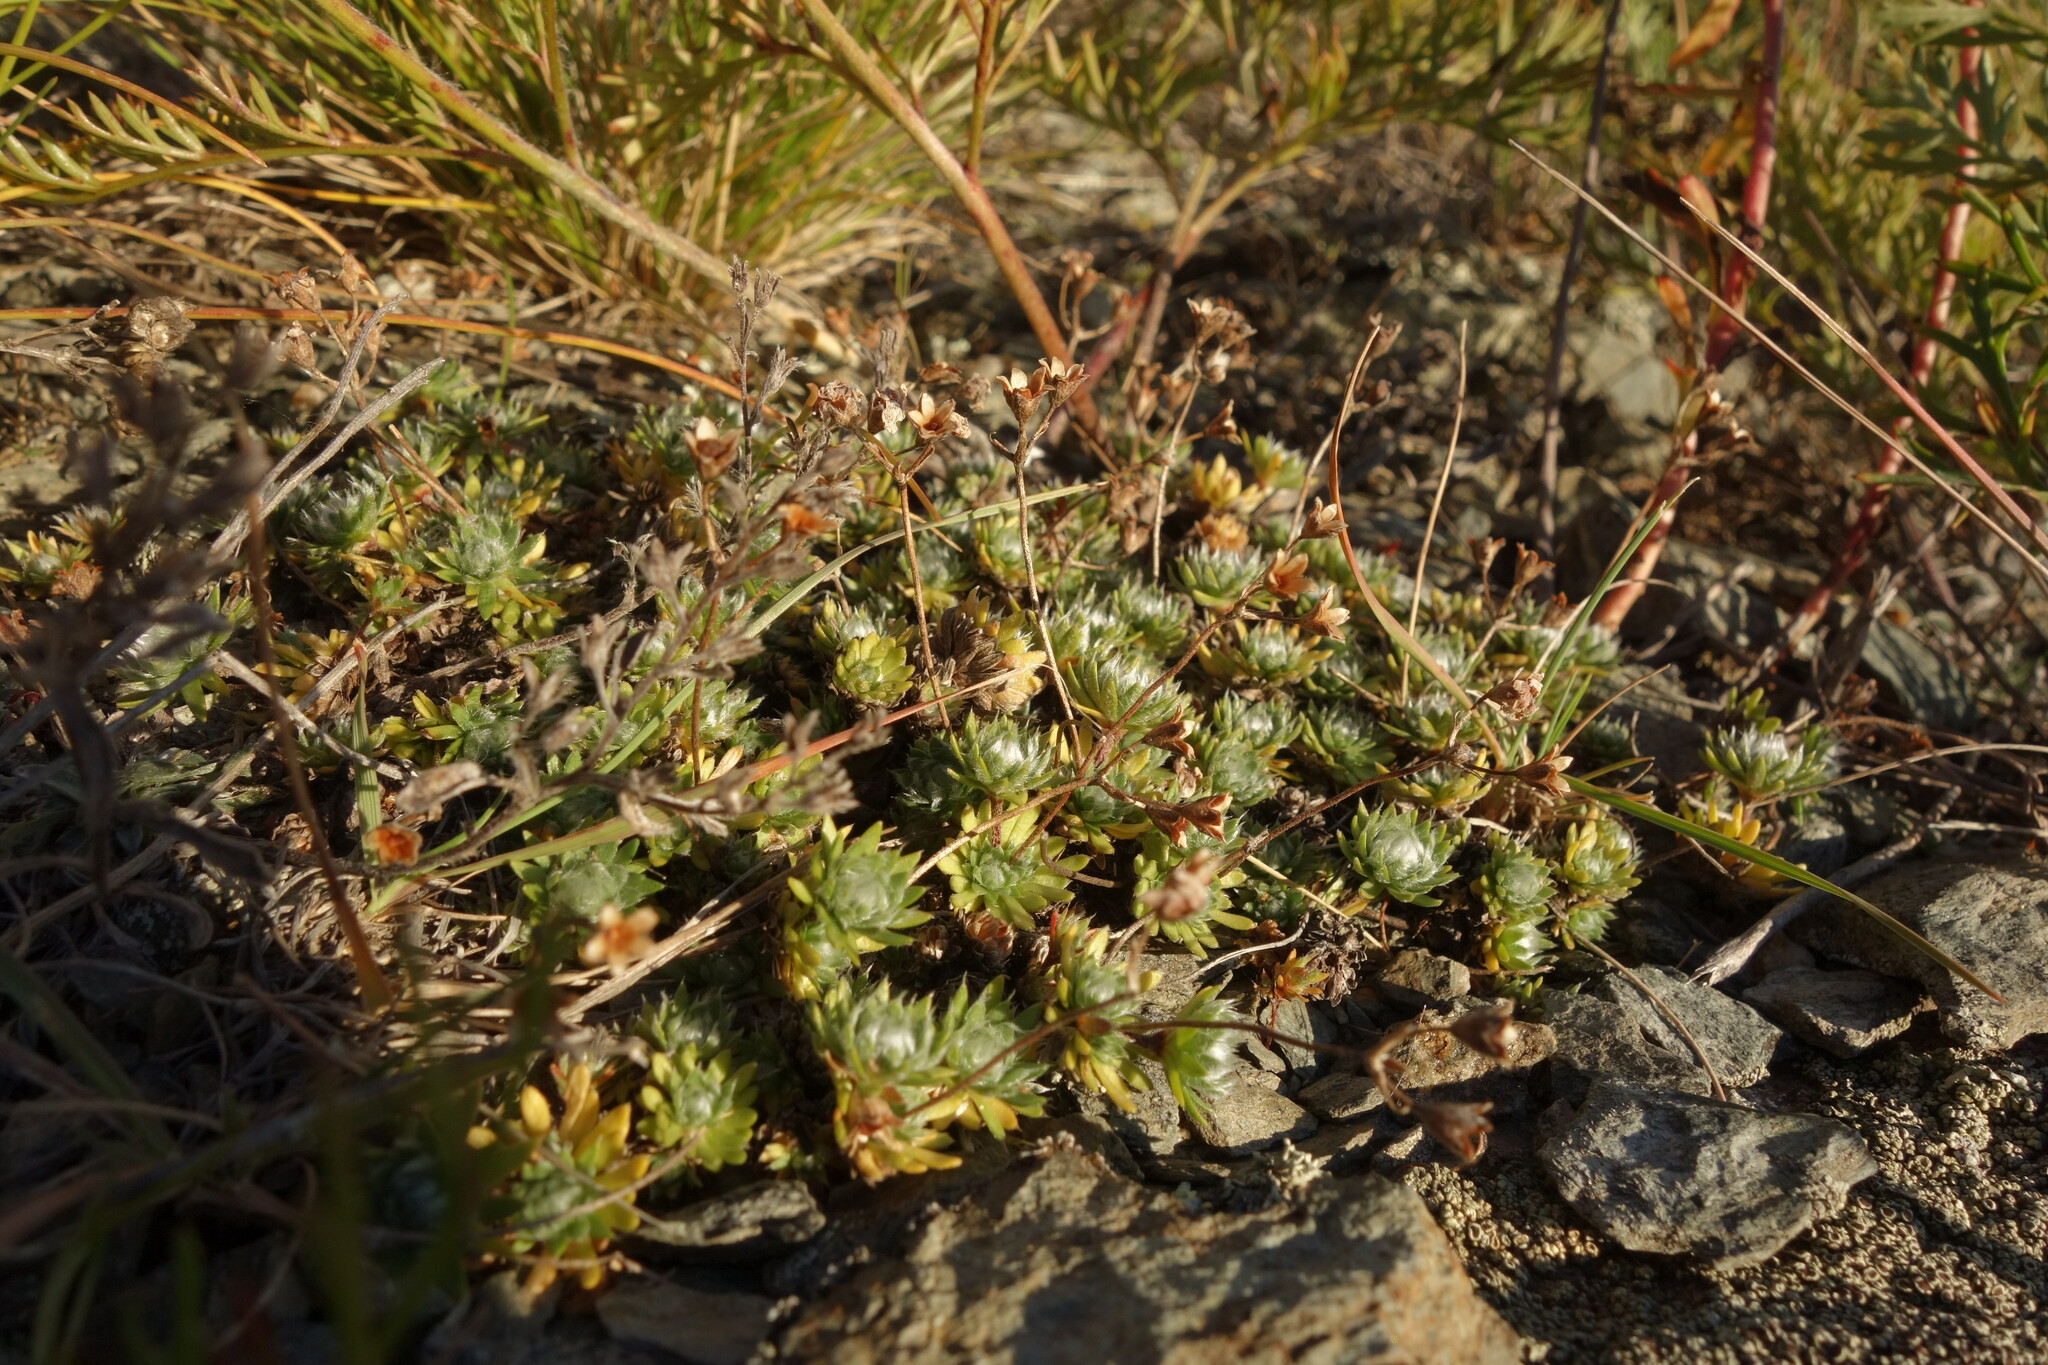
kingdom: Plantae
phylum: Tracheophyta
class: Magnoliopsida
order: Ericales
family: Primulaceae
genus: Androsace
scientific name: Androsace incana
